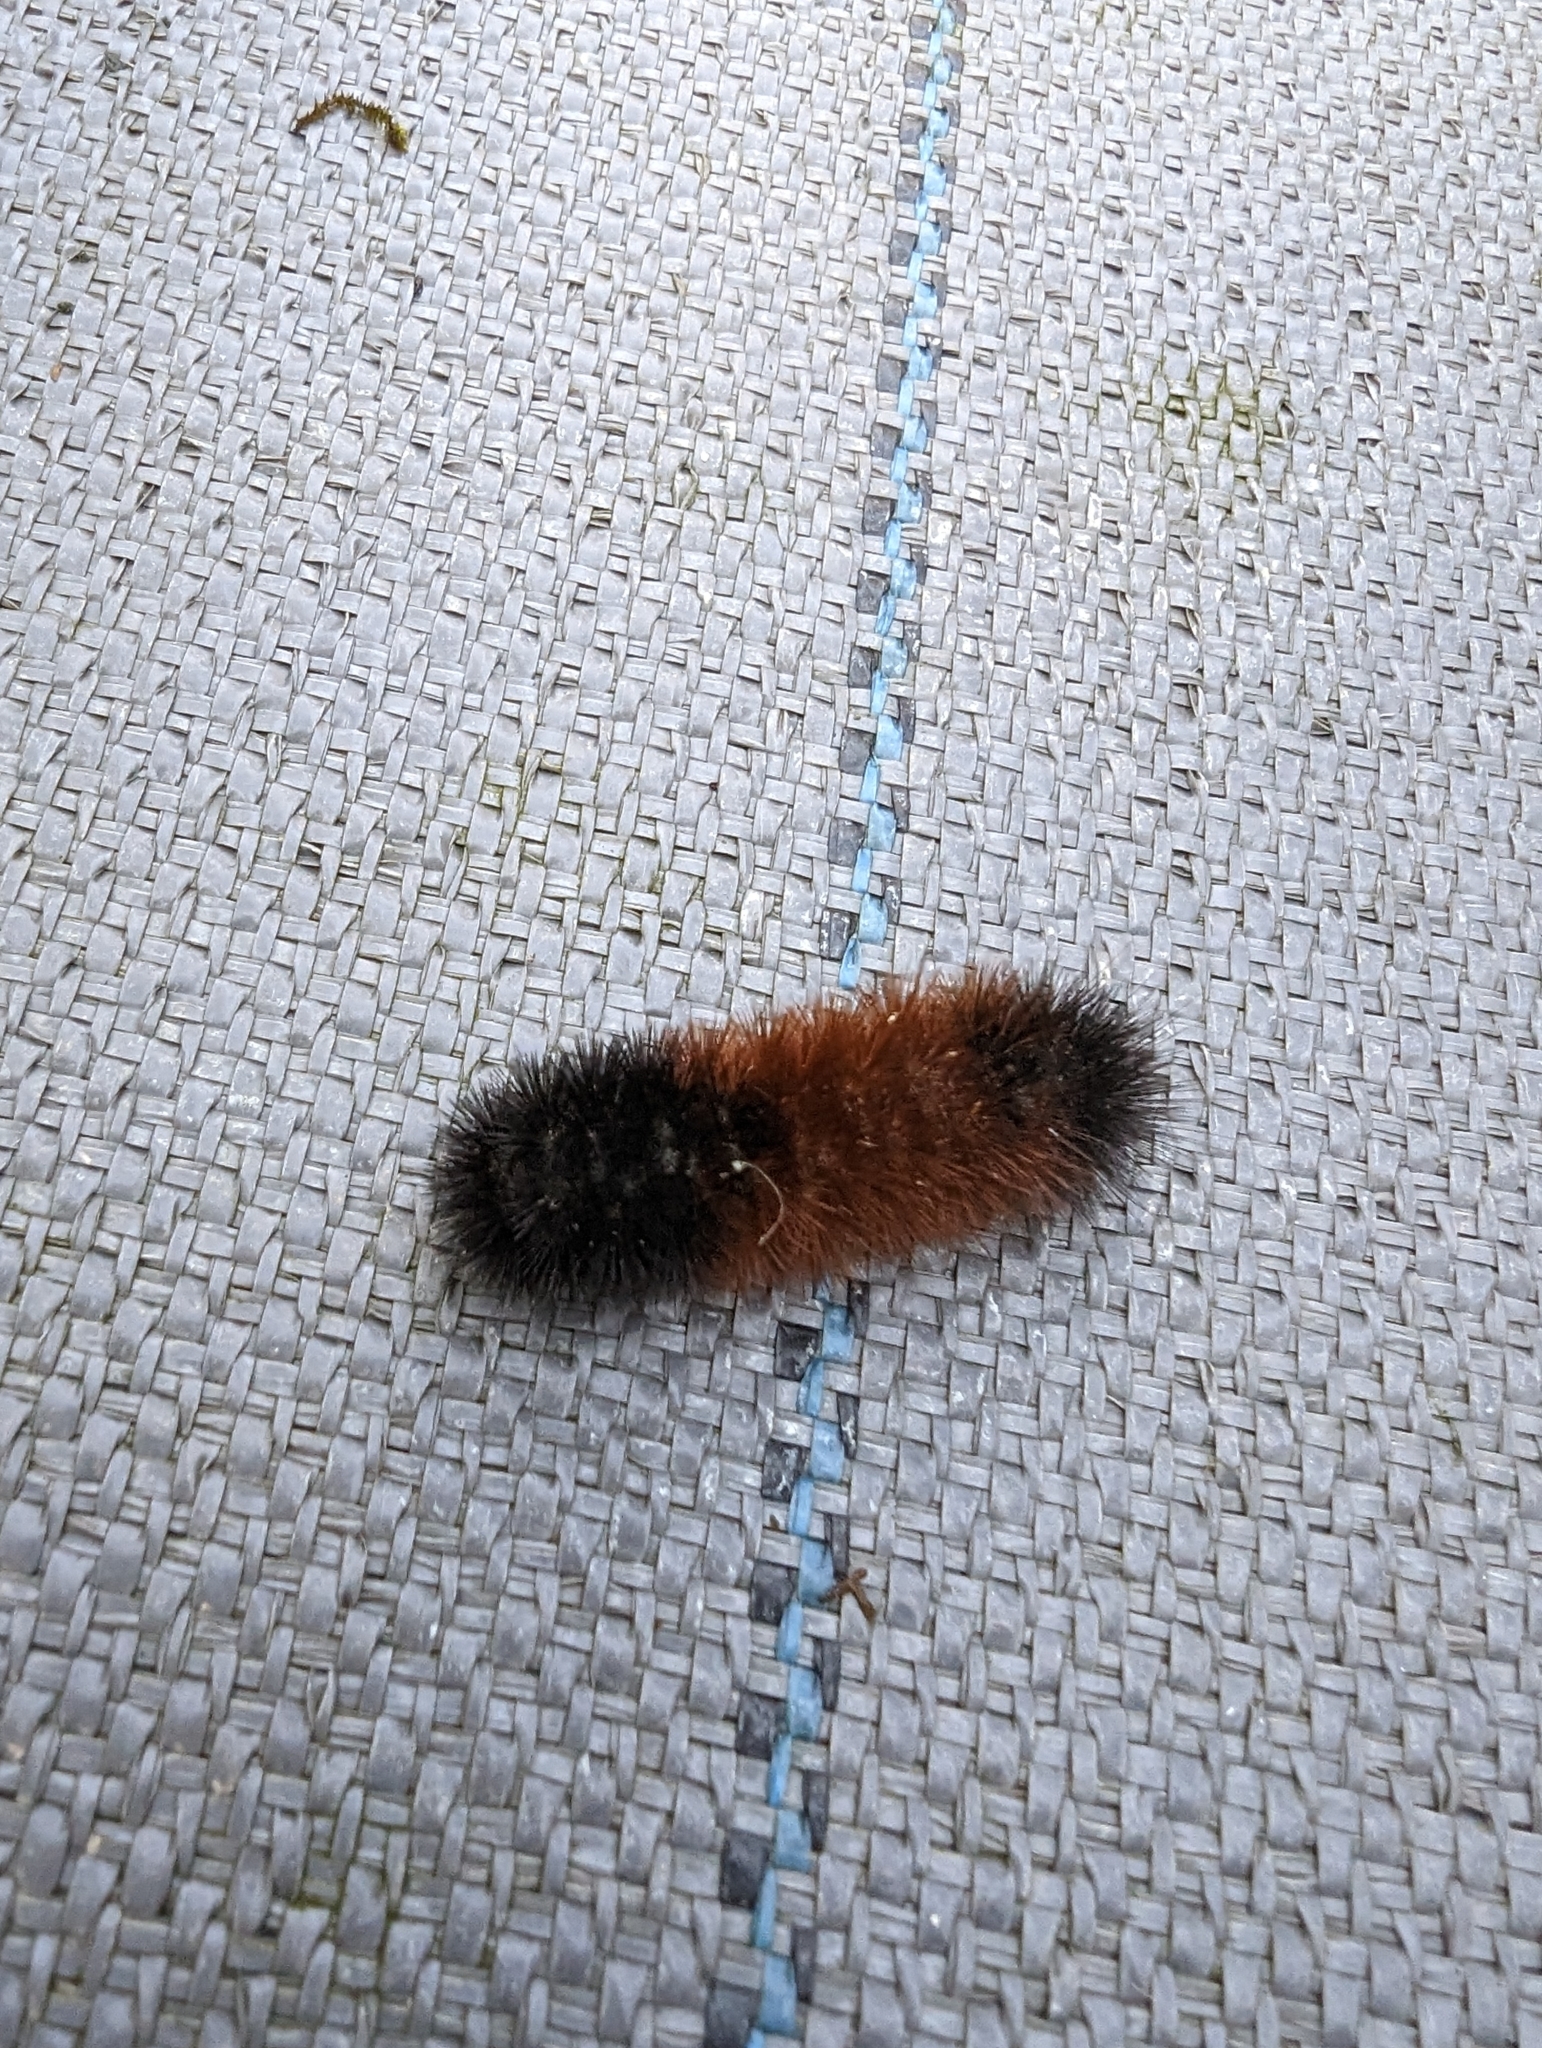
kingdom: Animalia
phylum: Arthropoda
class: Insecta
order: Lepidoptera
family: Erebidae
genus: Pyrrharctia
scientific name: Pyrrharctia isabella
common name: Isabella tiger moth
